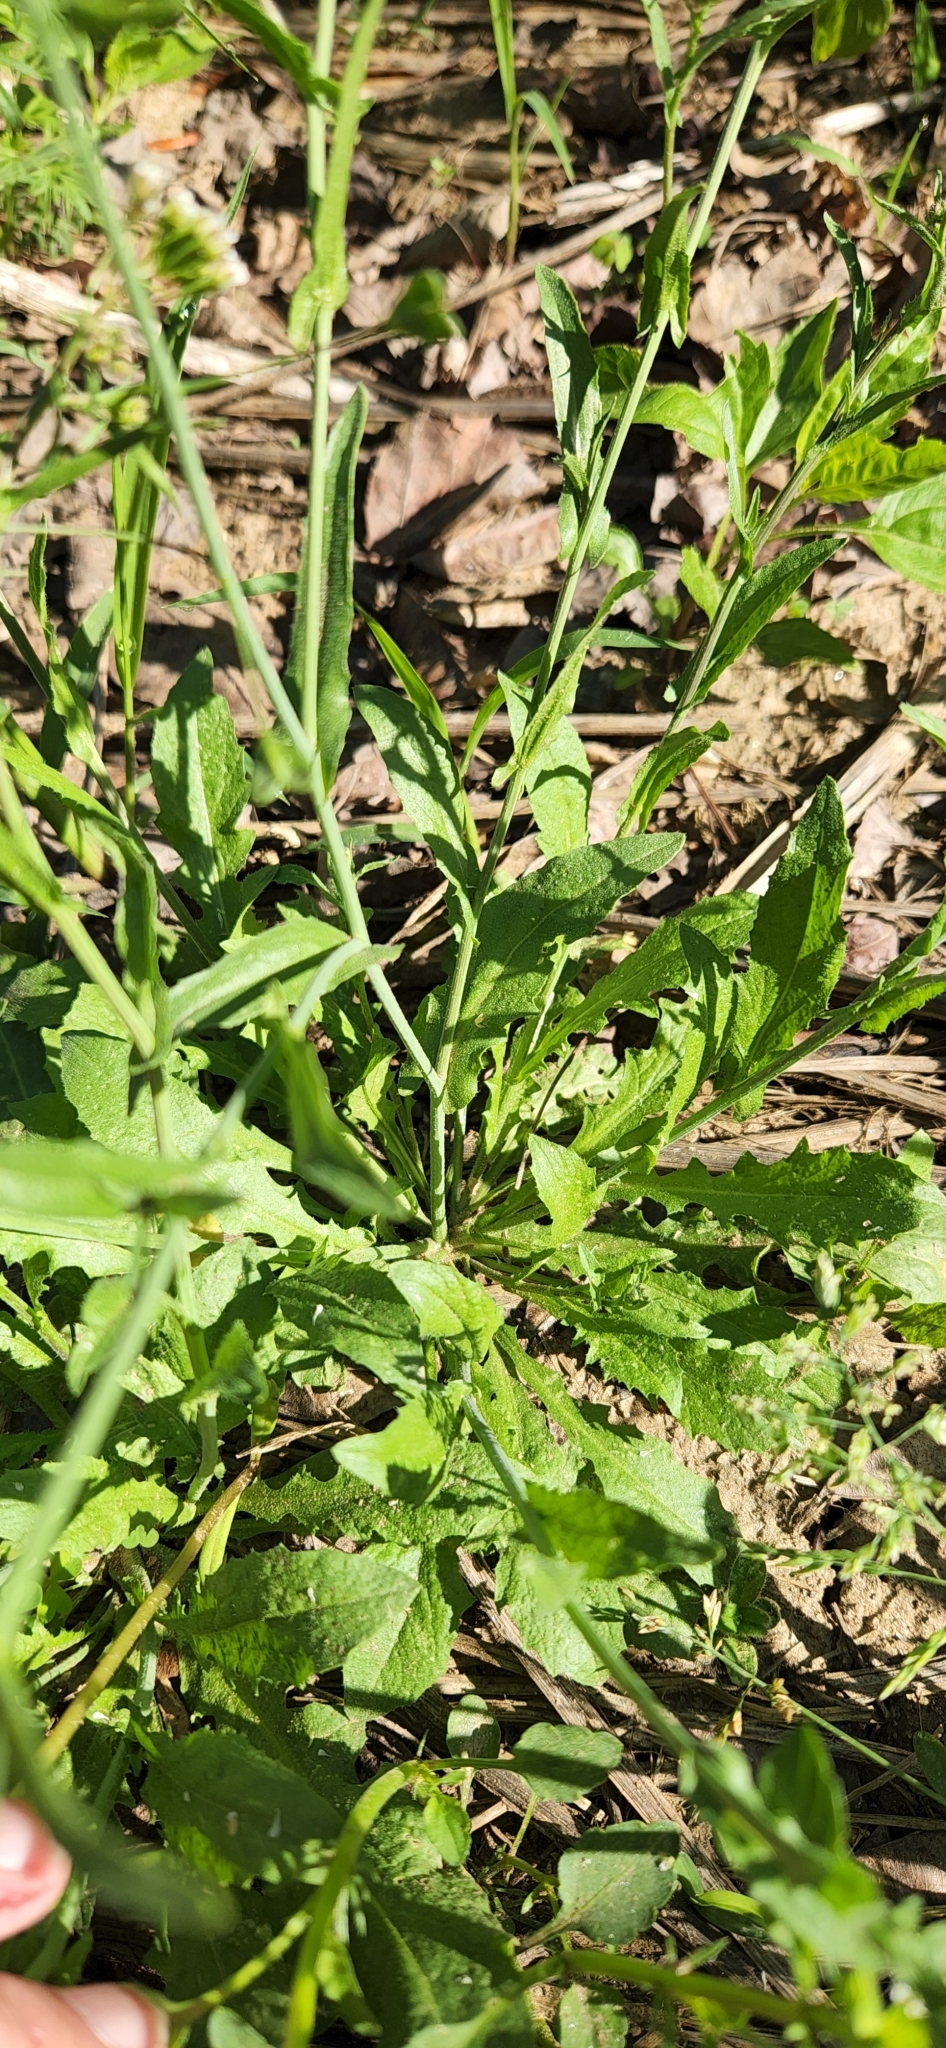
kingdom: Plantae
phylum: Tracheophyta
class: Magnoliopsida
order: Brassicales
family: Brassicaceae
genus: Capsella
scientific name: Capsella bursa-pastoris
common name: Shepherd's purse
